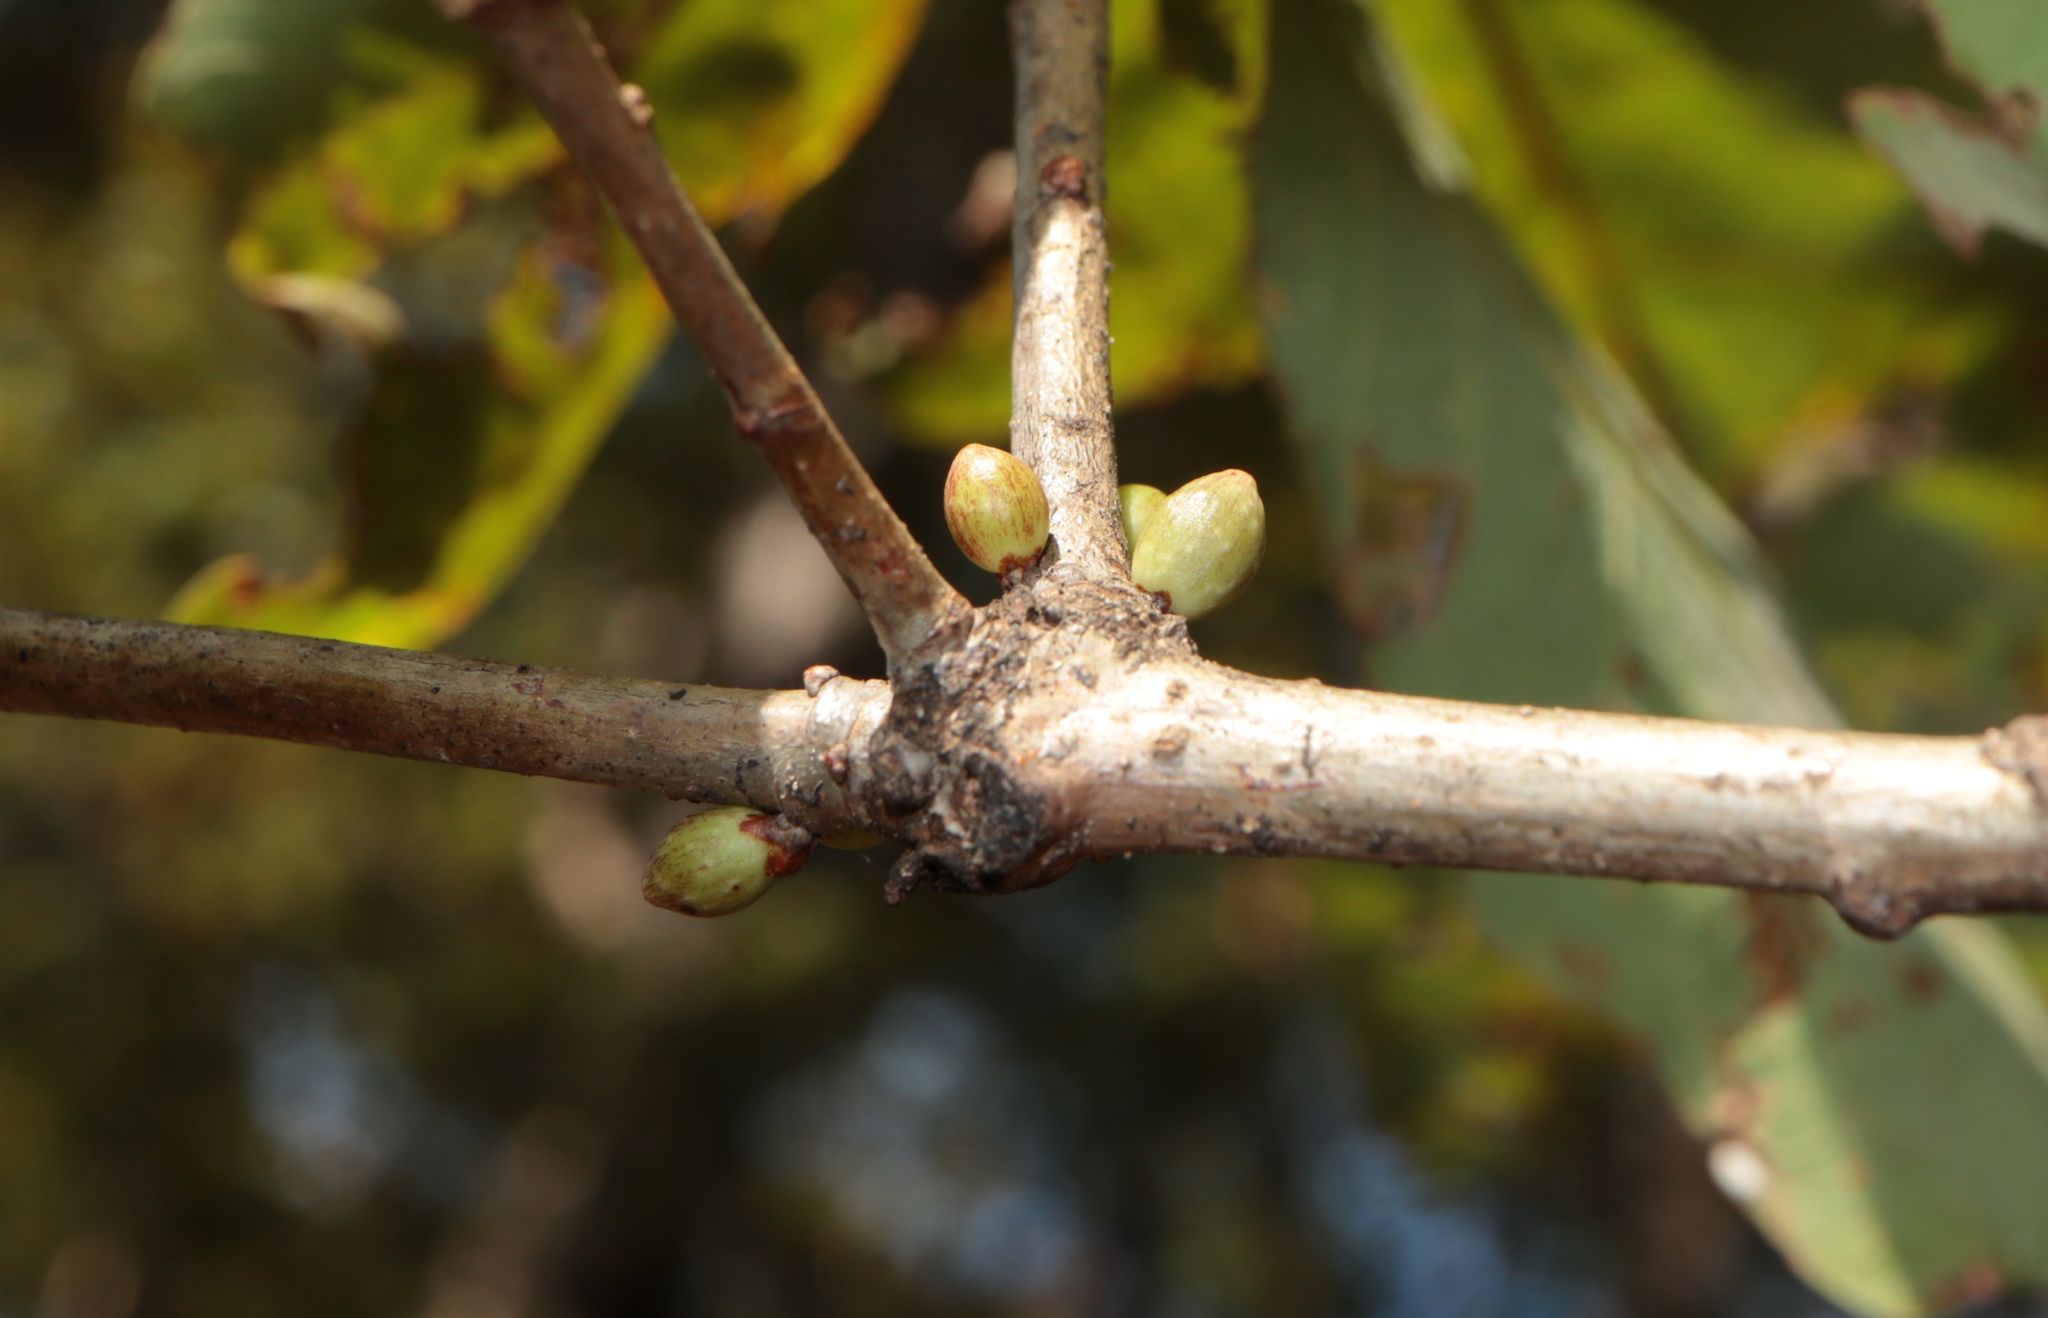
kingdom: Animalia
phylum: Arthropoda
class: Insecta
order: Hymenoptera
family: Cynipidae
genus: Andricus
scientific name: Andricus
